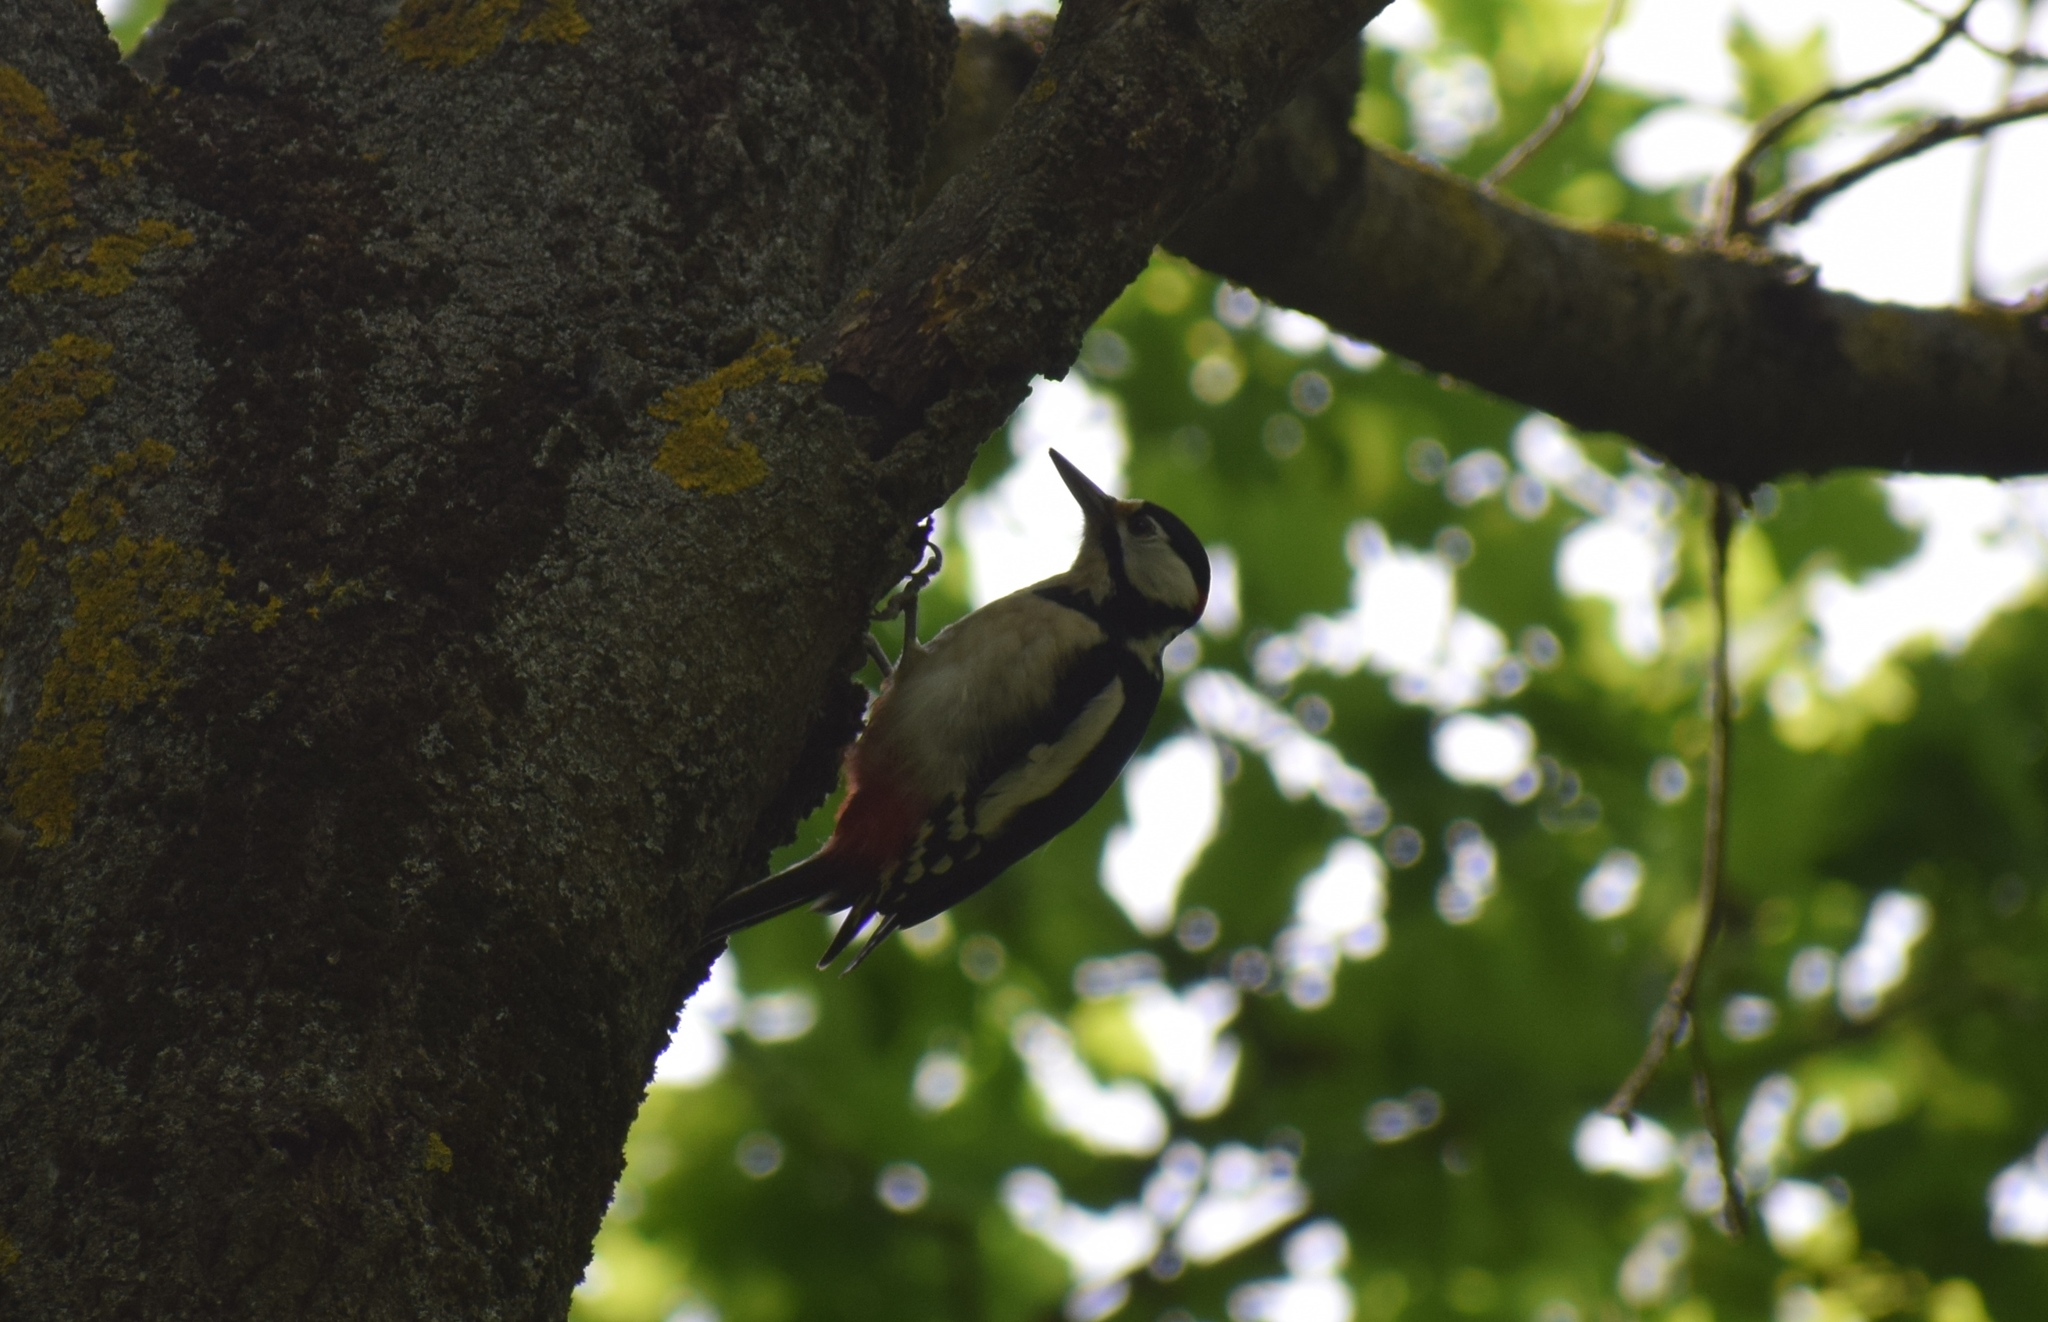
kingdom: Animalia
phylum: Chordata
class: Aves
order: Piciformes
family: Picidae
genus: Dendrocopos
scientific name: Dendrocopos major
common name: Great spotted woodpecker
